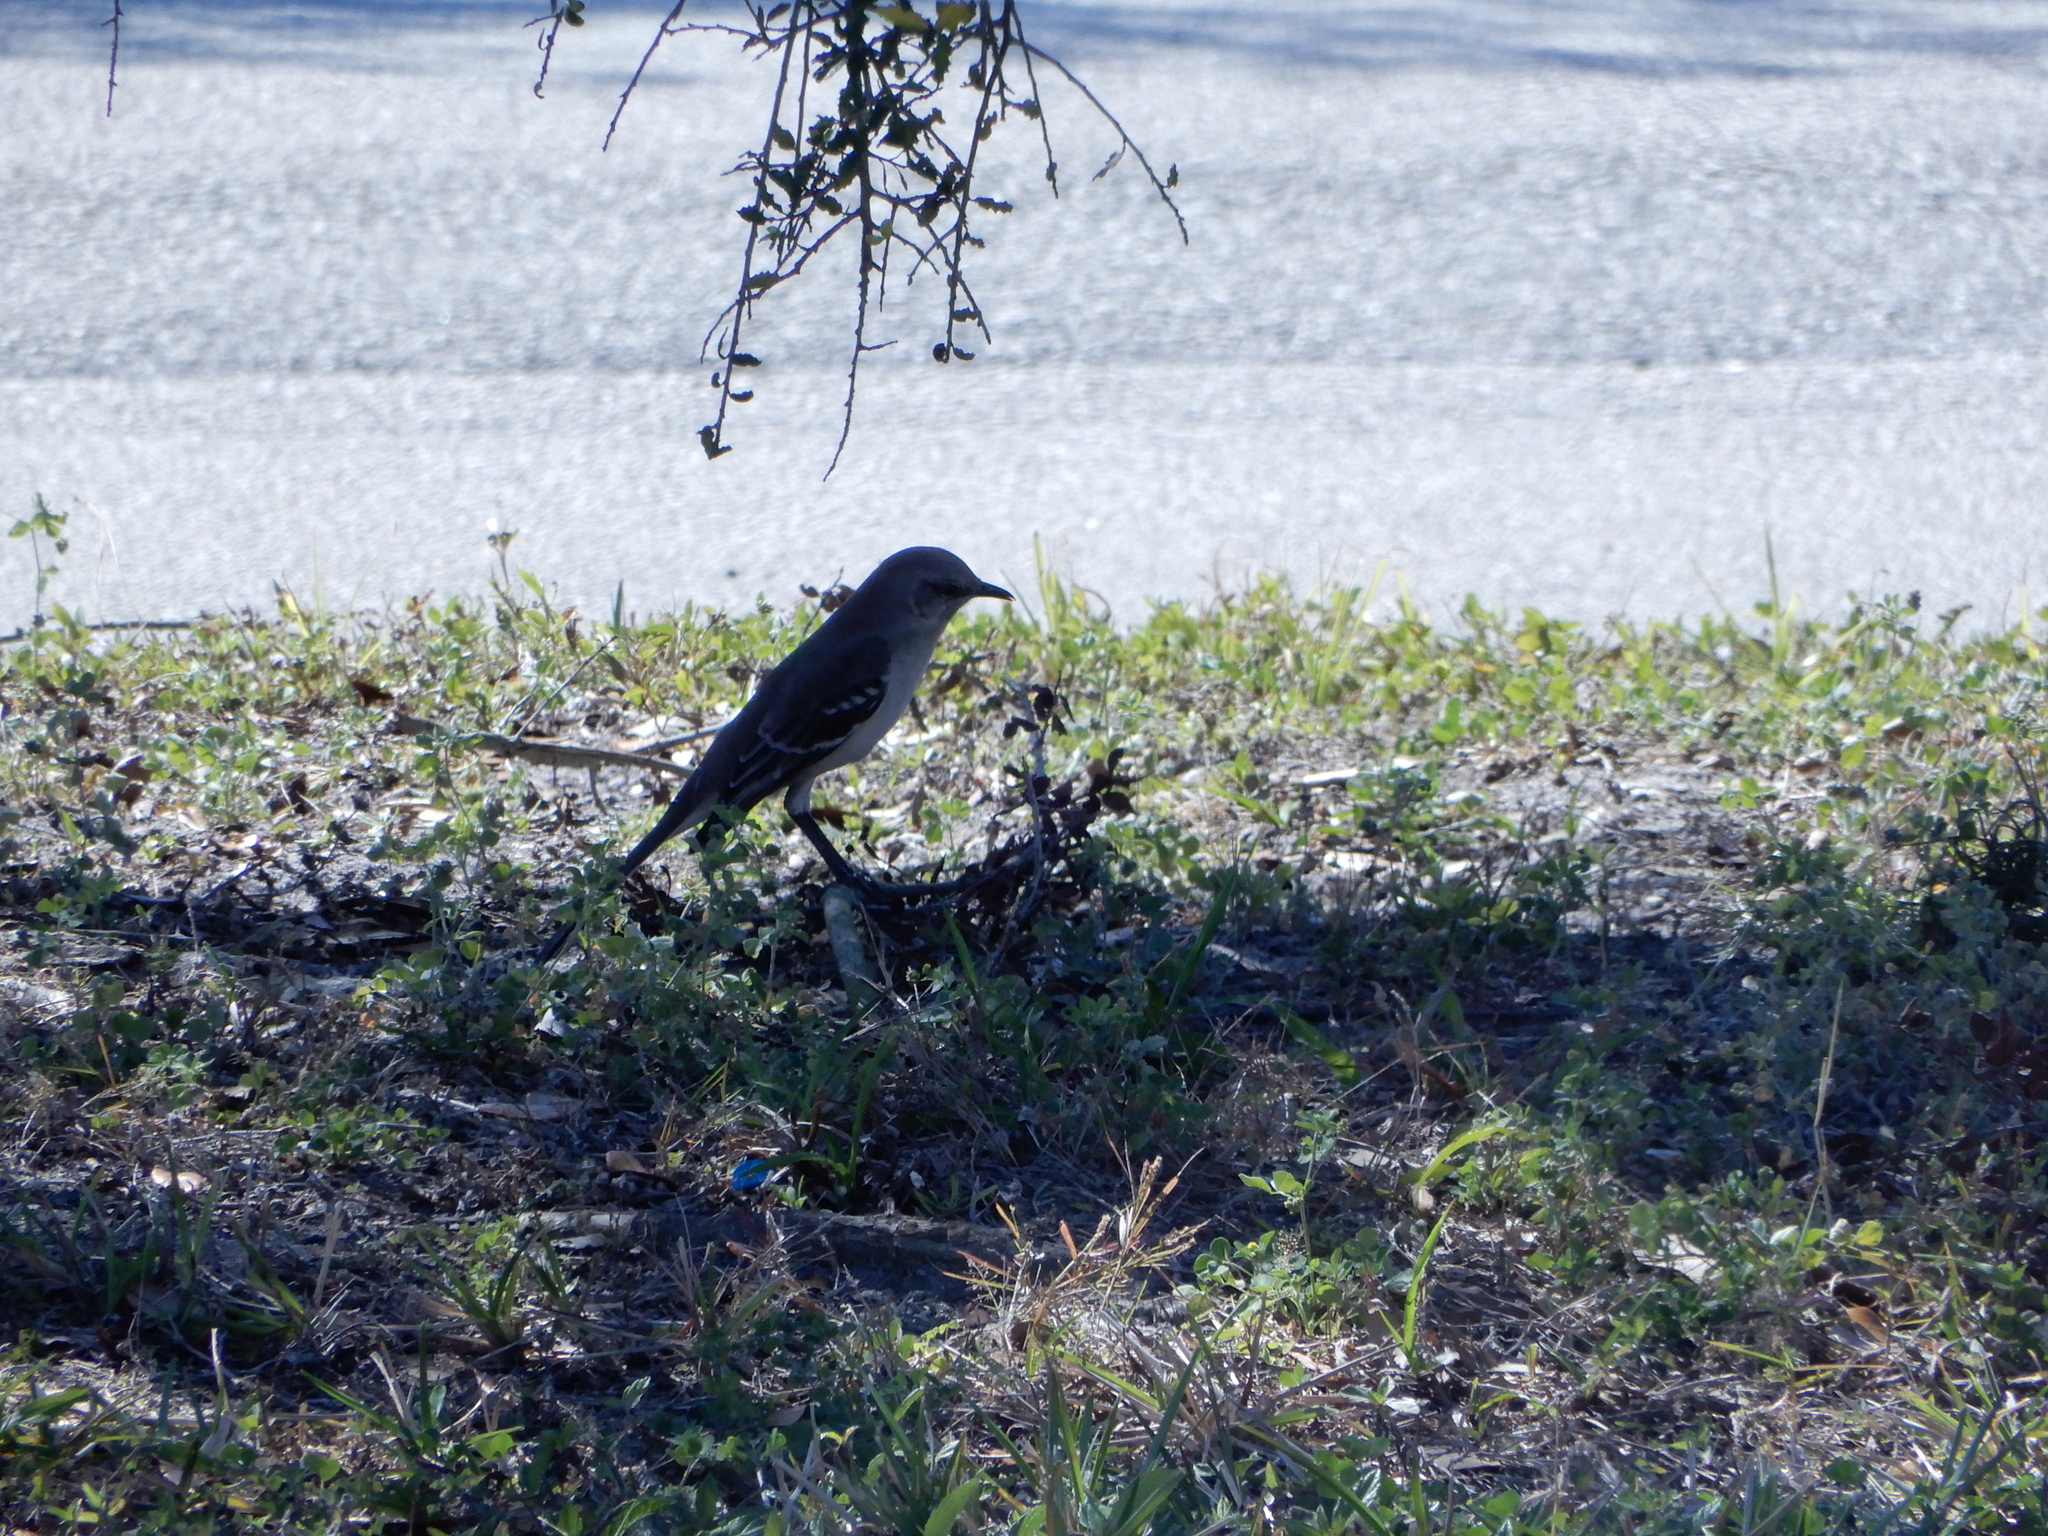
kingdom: Animalia
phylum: Chordata
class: Aves
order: Passeriformes
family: Mimidae
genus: Mimus
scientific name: Mimus polyglottos
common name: Northern mockingbird
